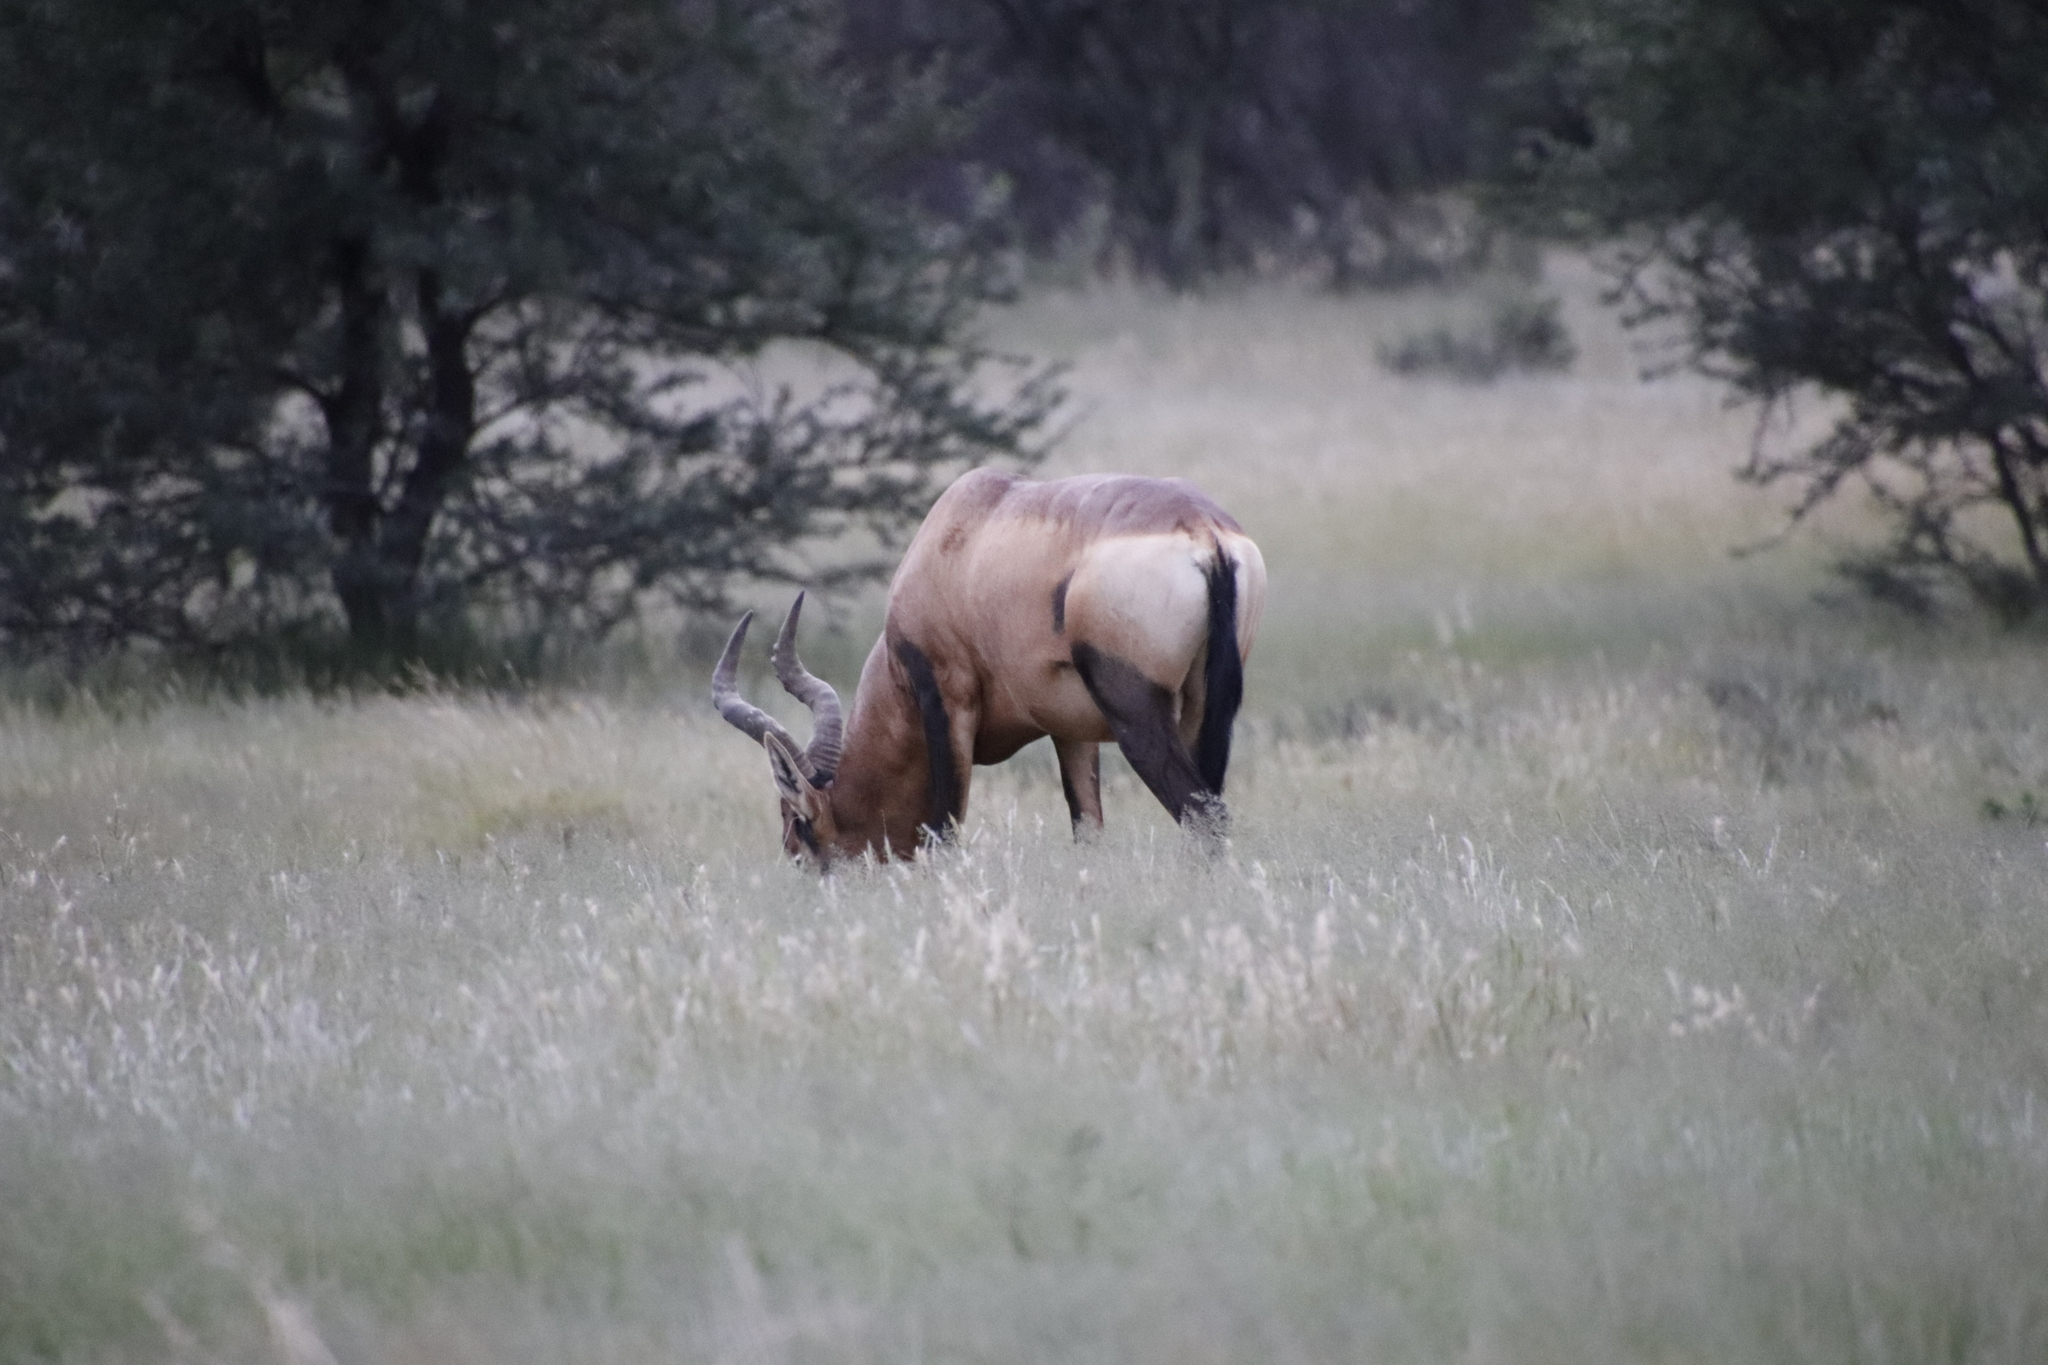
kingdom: Animalia
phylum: Chordata
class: Mammalia
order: Artiodactyla
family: Bovidae
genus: Alcelaphus
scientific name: Alcelaphus caama
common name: Red hartebeest
